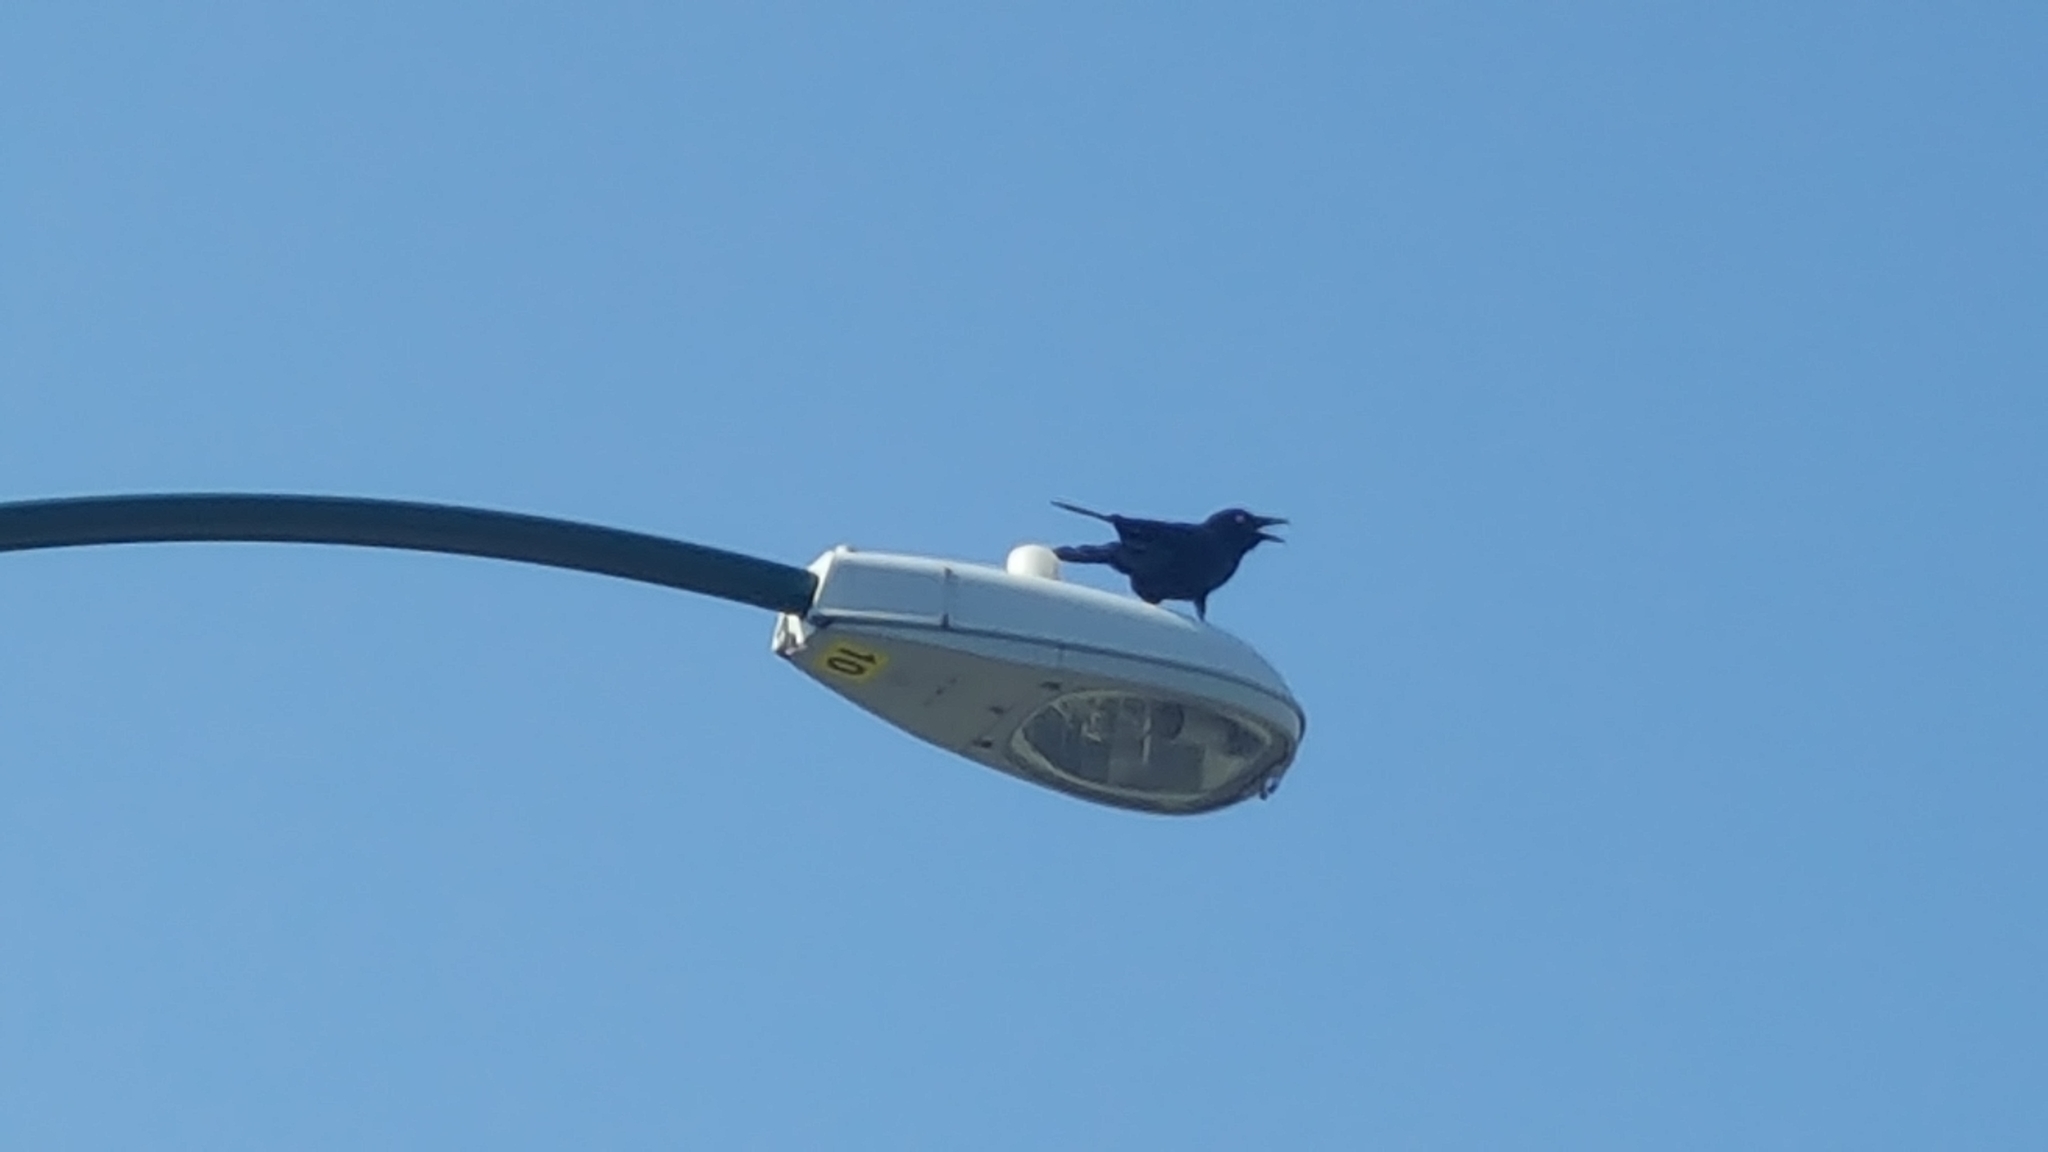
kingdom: Animalia
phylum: Chordata
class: Aves
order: Passeriformes
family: Corvidae
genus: Corvus
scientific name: Corvus brachyrhynchos
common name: American crow
